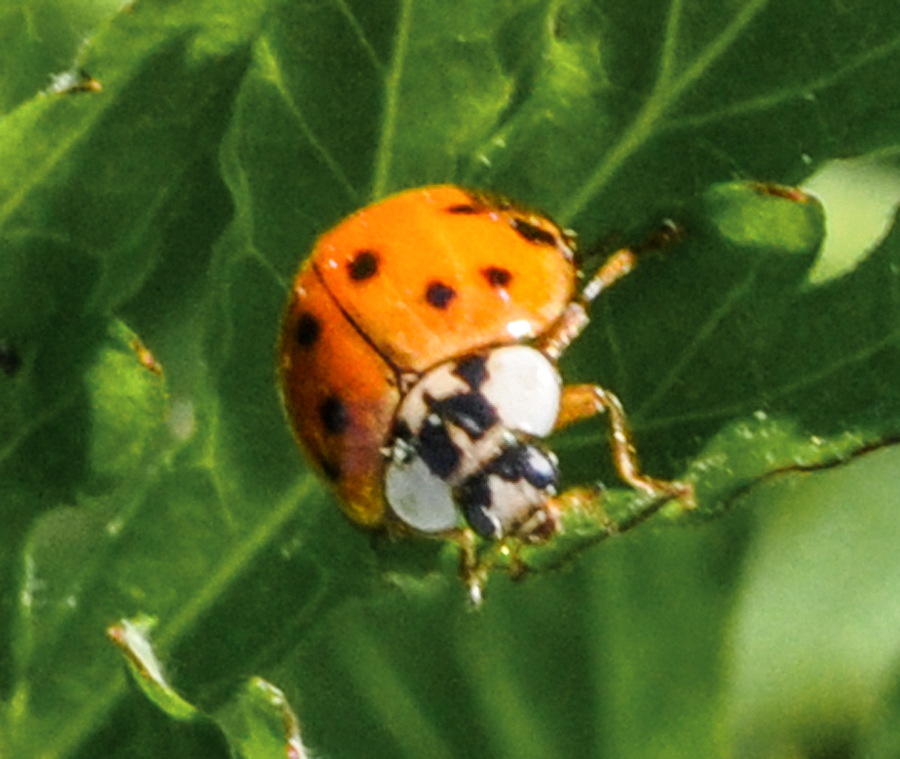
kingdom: Animalia
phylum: Arthropoda
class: Insecta
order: Coleoptera
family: Coccinellidae
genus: Harmonia
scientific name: Harmonia axyridis
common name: Harlequin ladybird
